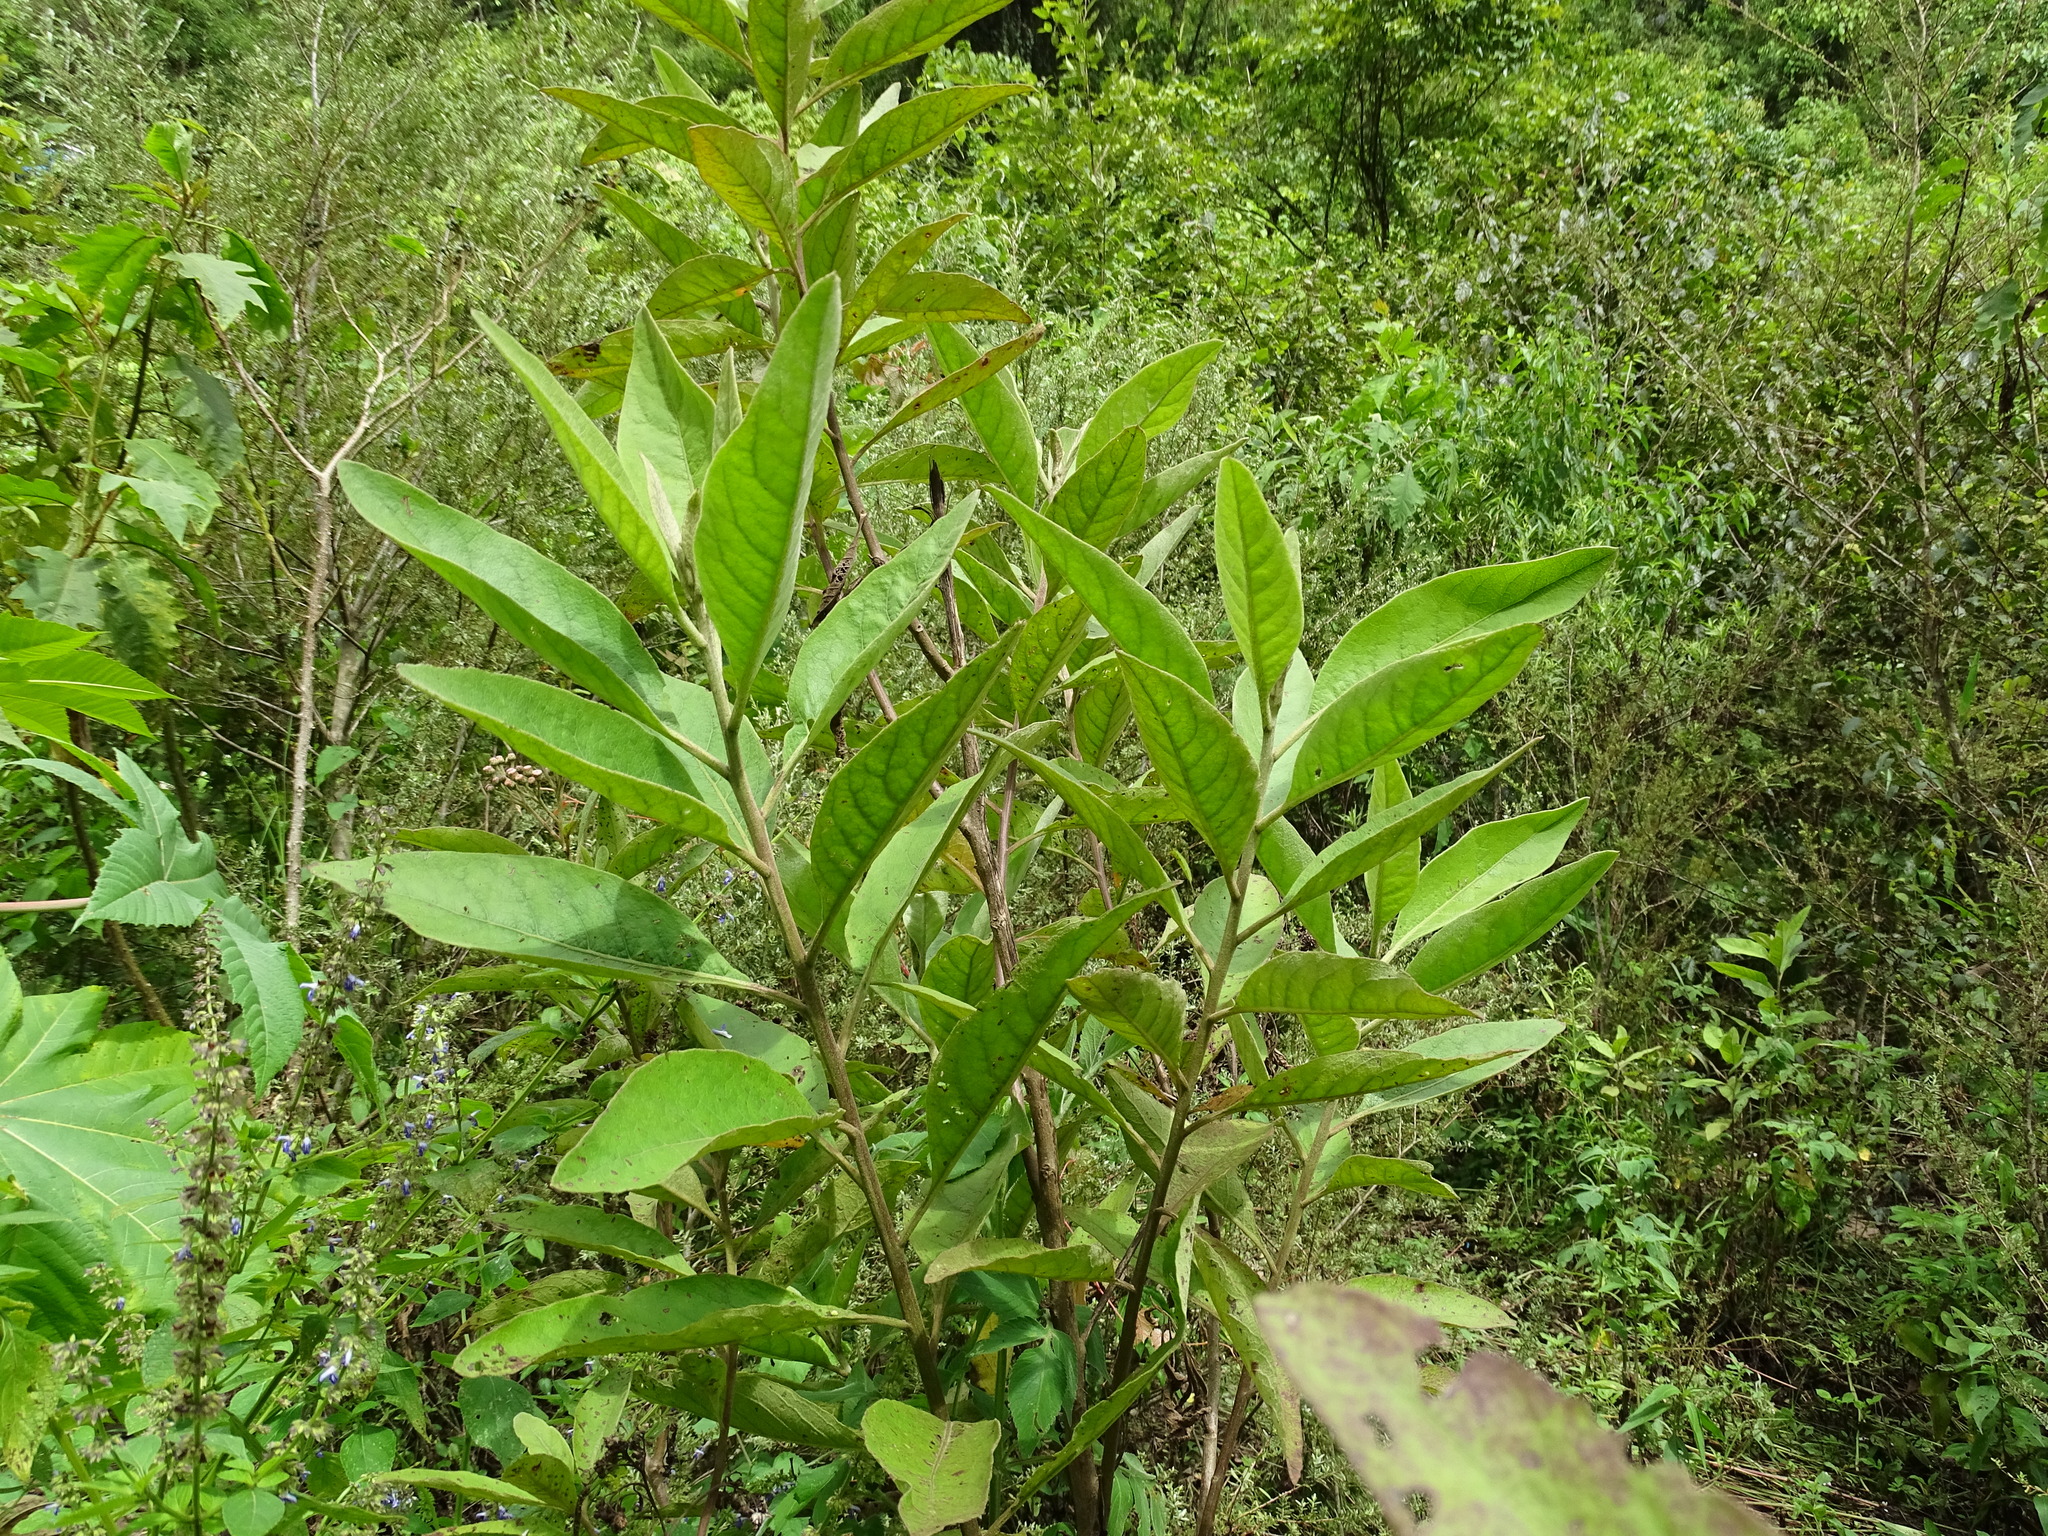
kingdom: Plantae
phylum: Tracheophyta
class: Magnoliopsida
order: Asterales
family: Asteraceae
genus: Pluchea
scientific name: Pluchea carolinensis
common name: Marsh fleabane
